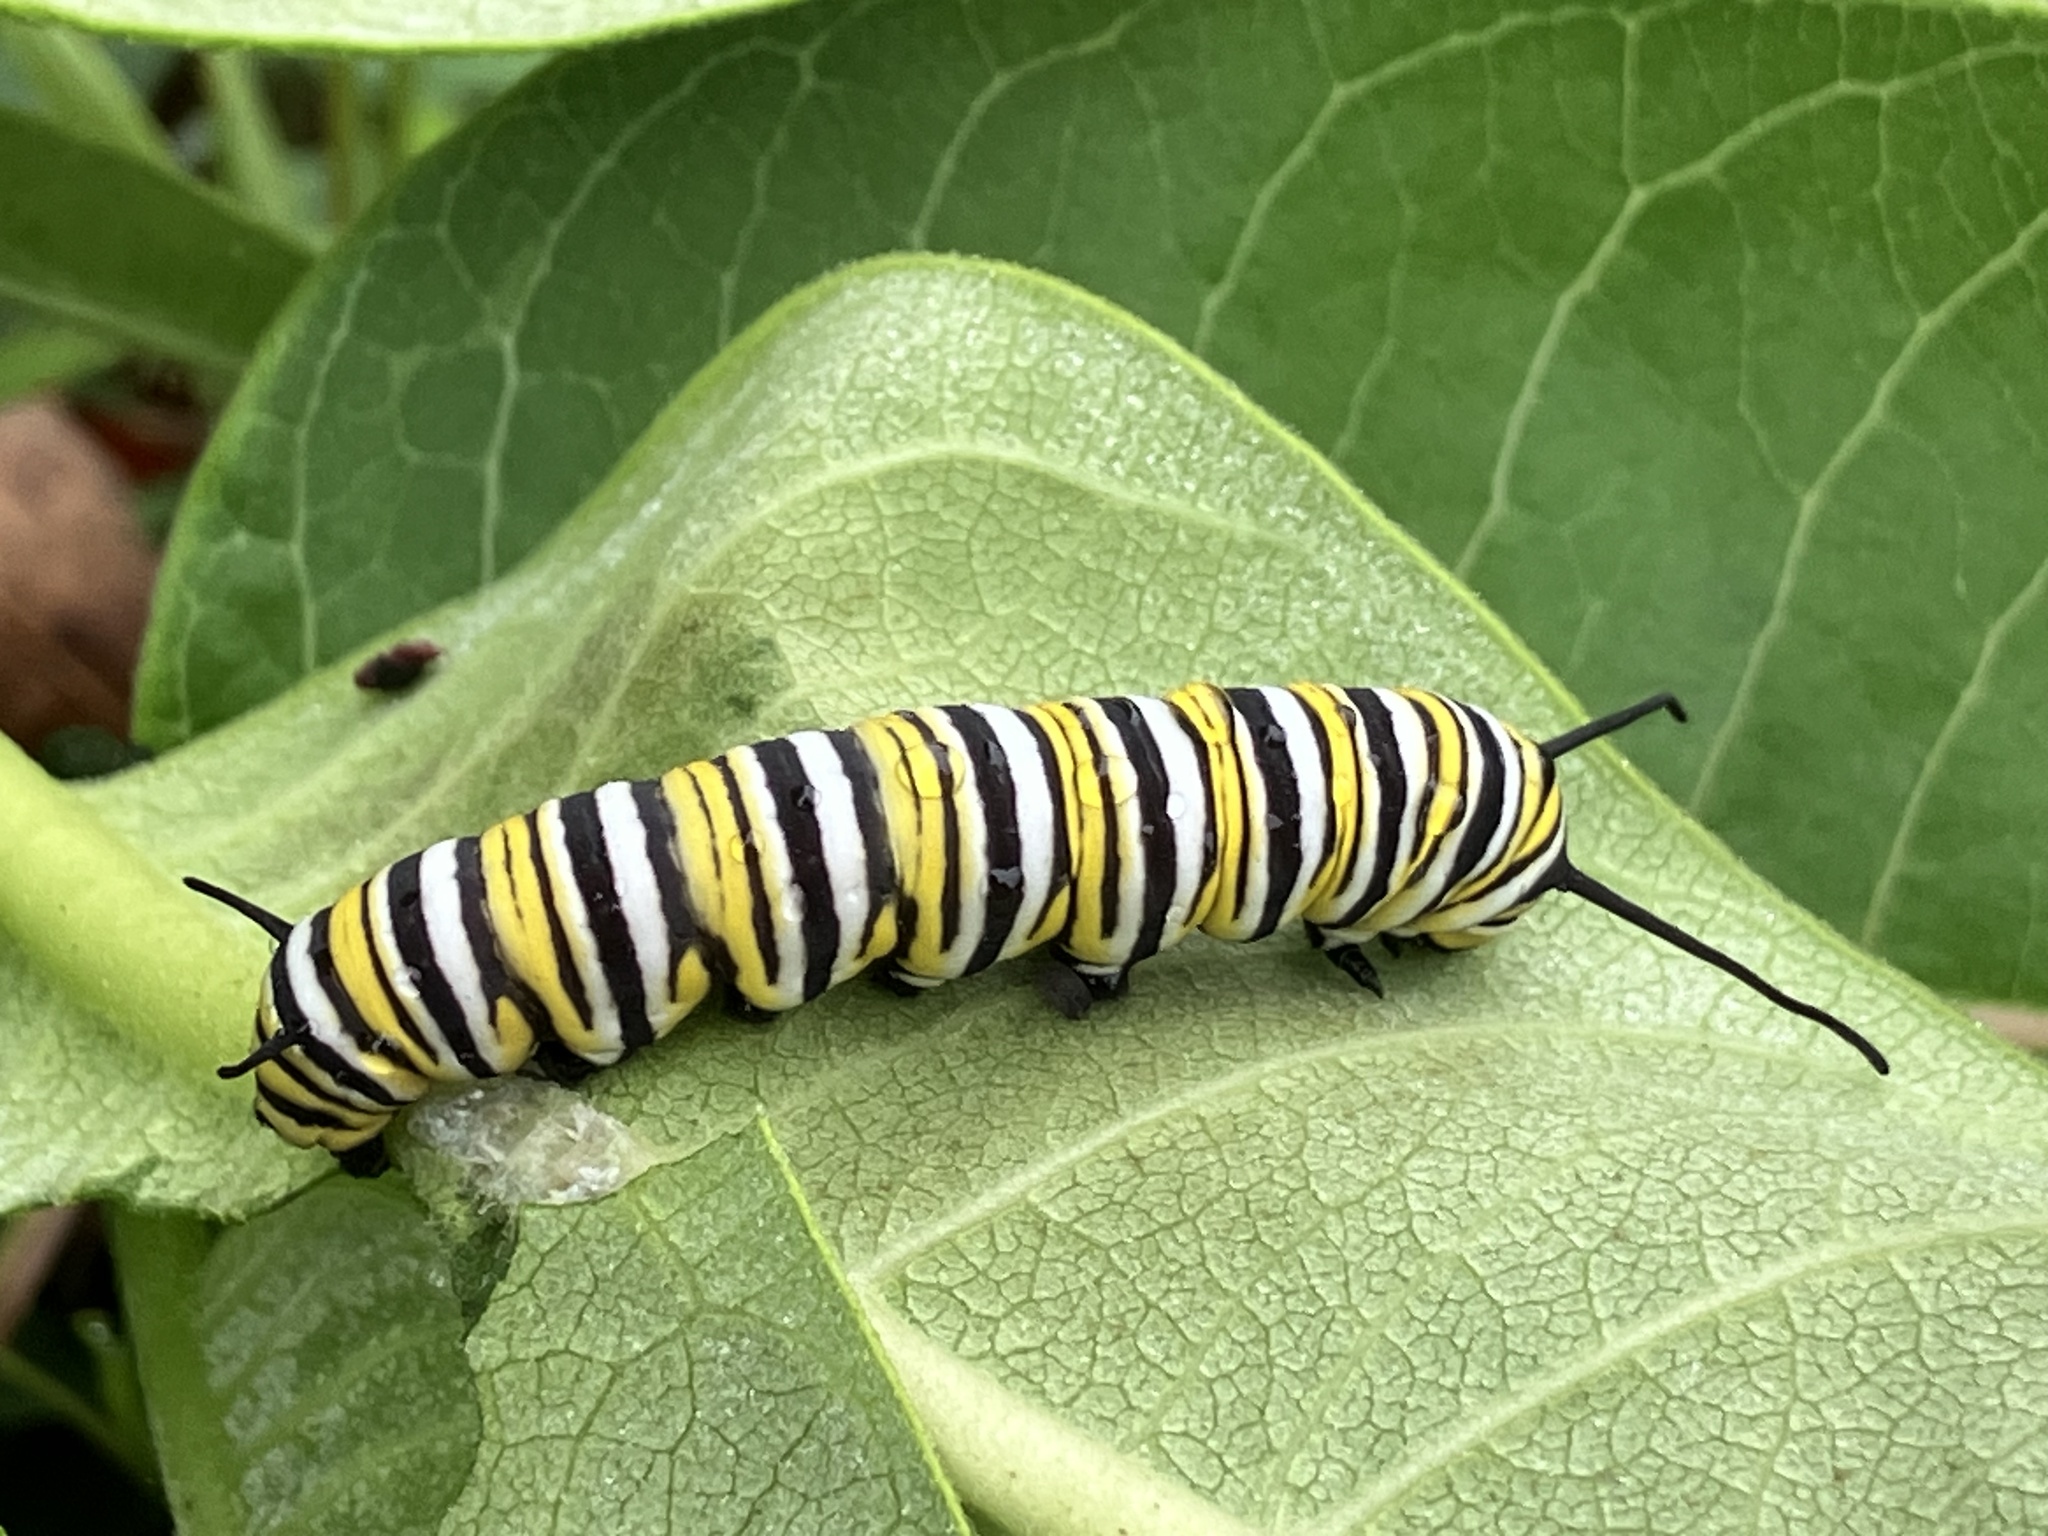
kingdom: Animalia
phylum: Arthropoda
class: Insecta
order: Lepidoptera
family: Nymphalidae
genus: Danaus
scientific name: Danaus plexippus
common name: Monarch
